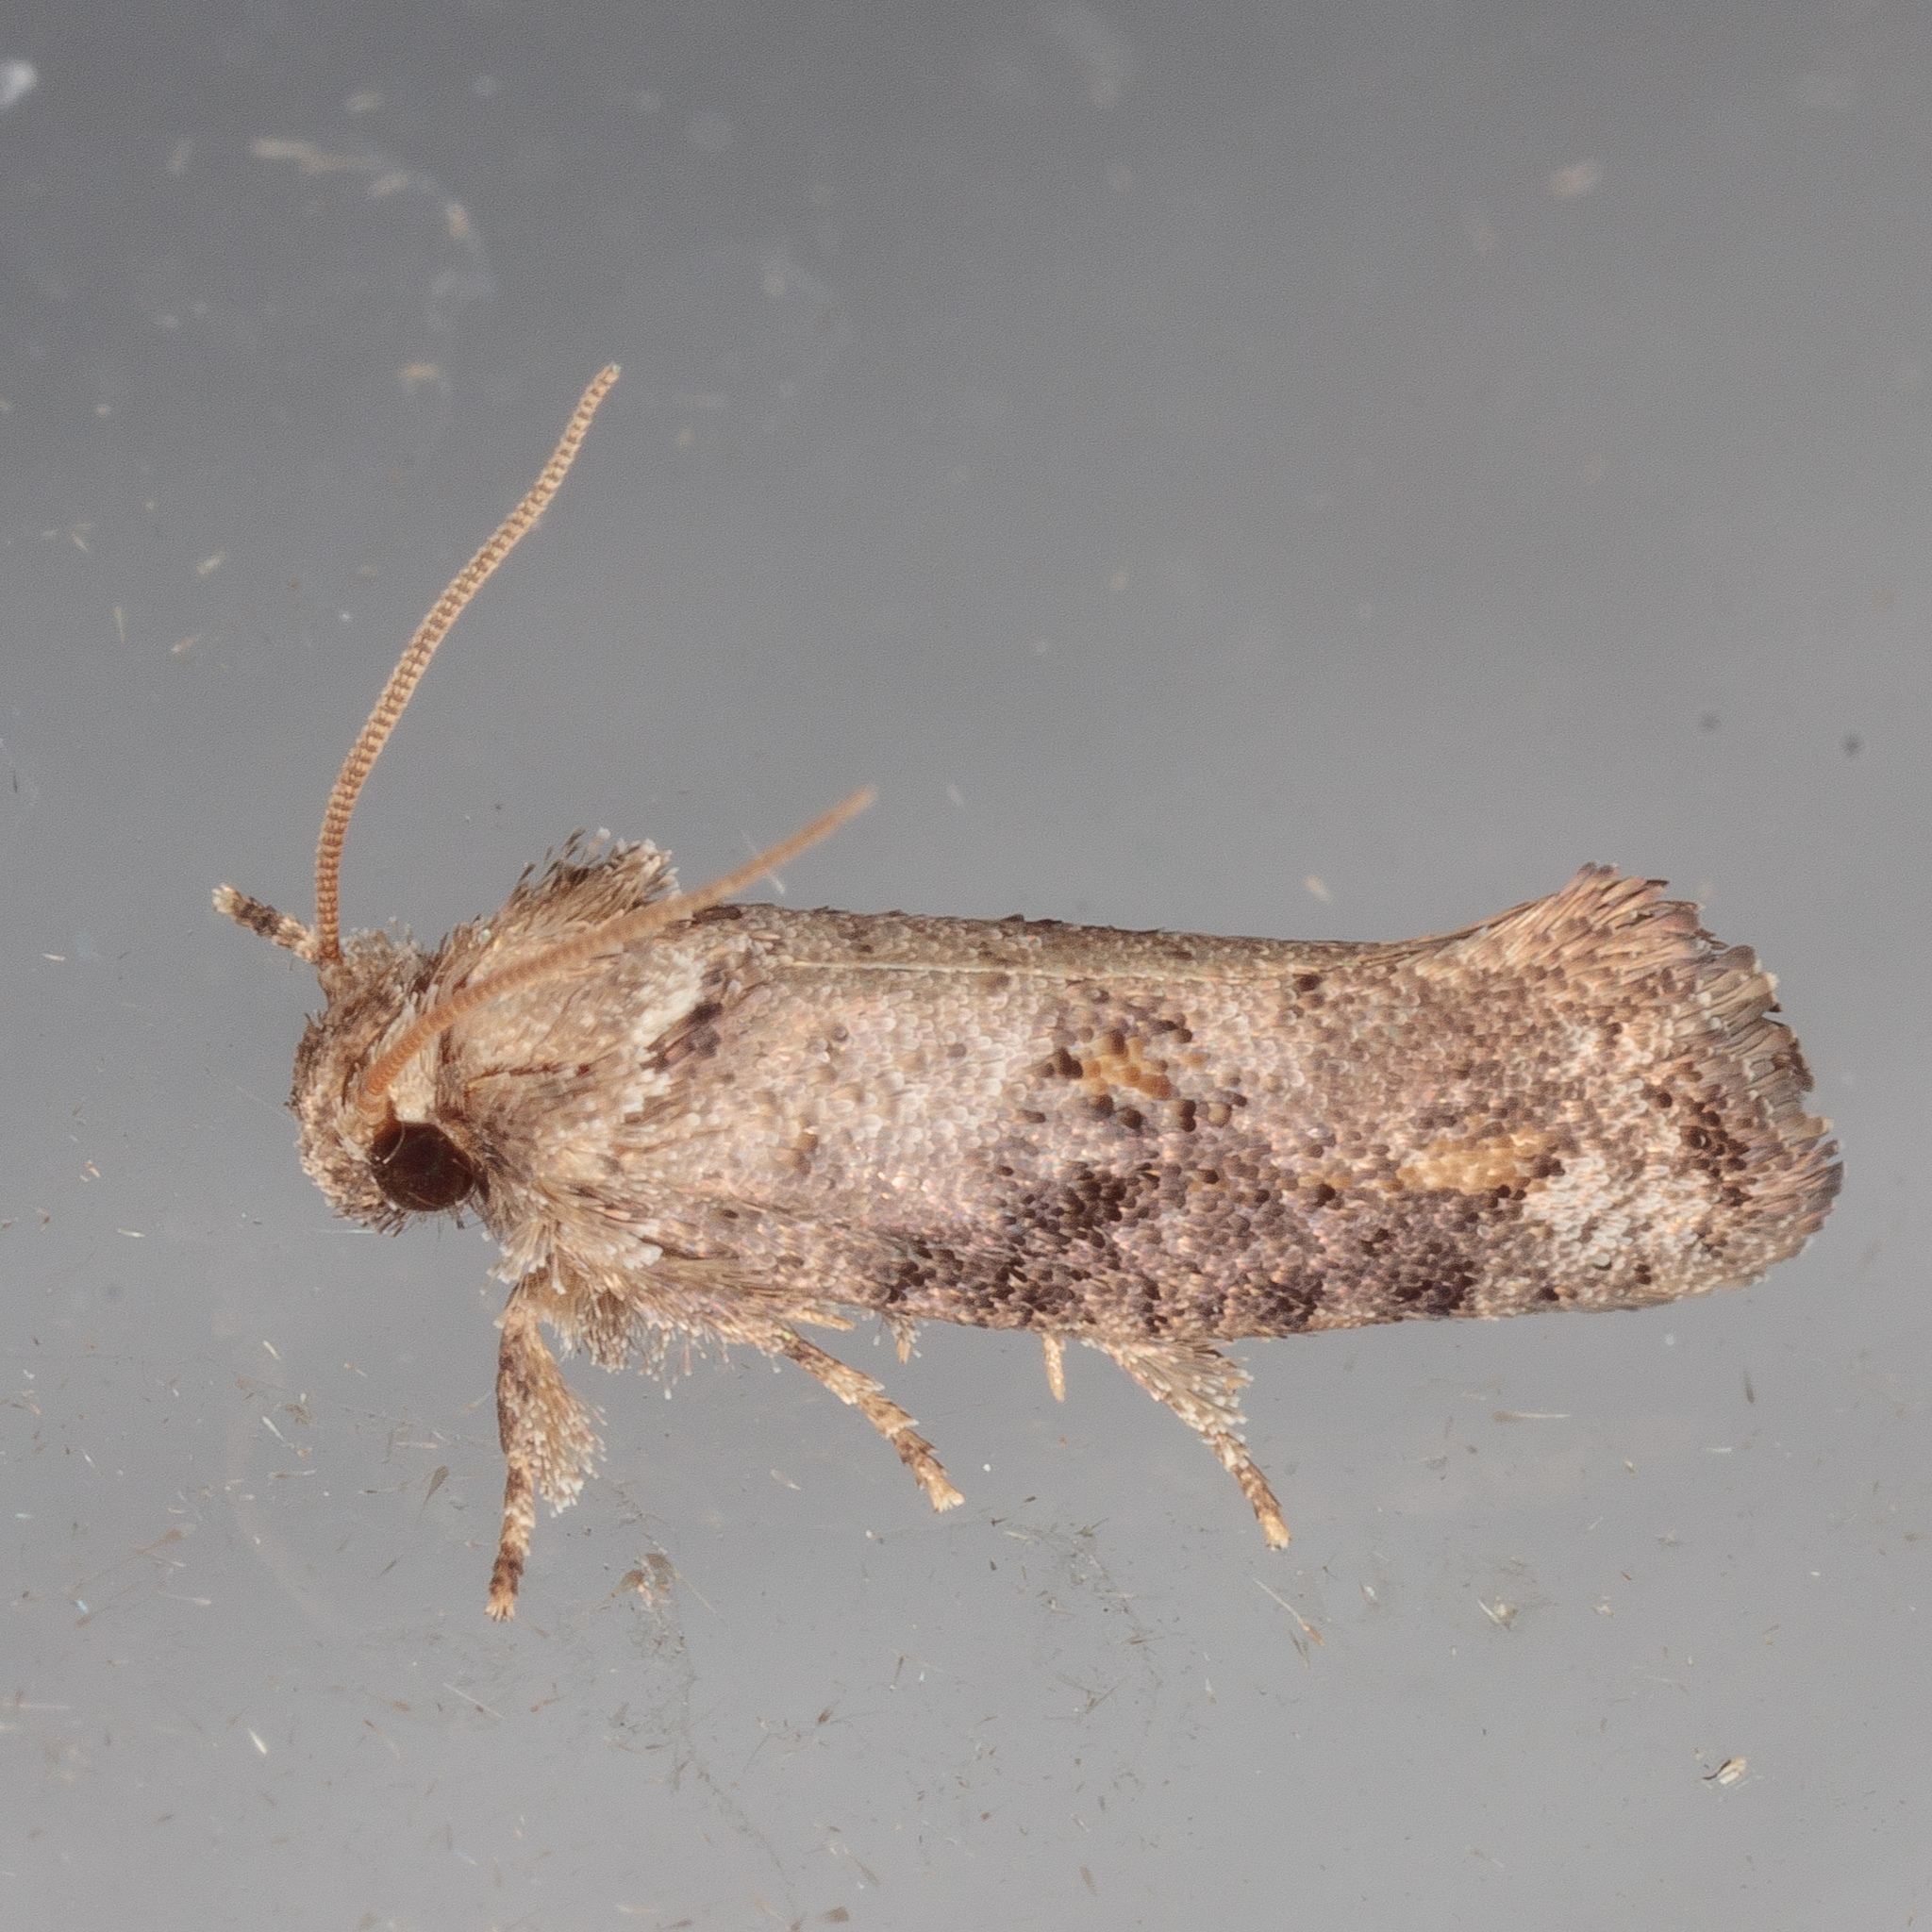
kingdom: Animalia
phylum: Arthropoda
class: Insecta
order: Lepidoptera
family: Tineidae
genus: Acrolophus
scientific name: Acrolophus piger
